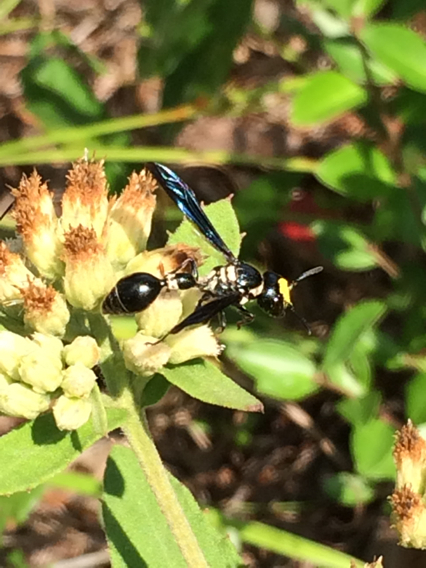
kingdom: Animalia
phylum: Arthropoda
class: Insecta
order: Hymenoptera
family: Eumenidae
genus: Zethus
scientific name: Zethus spinipes
